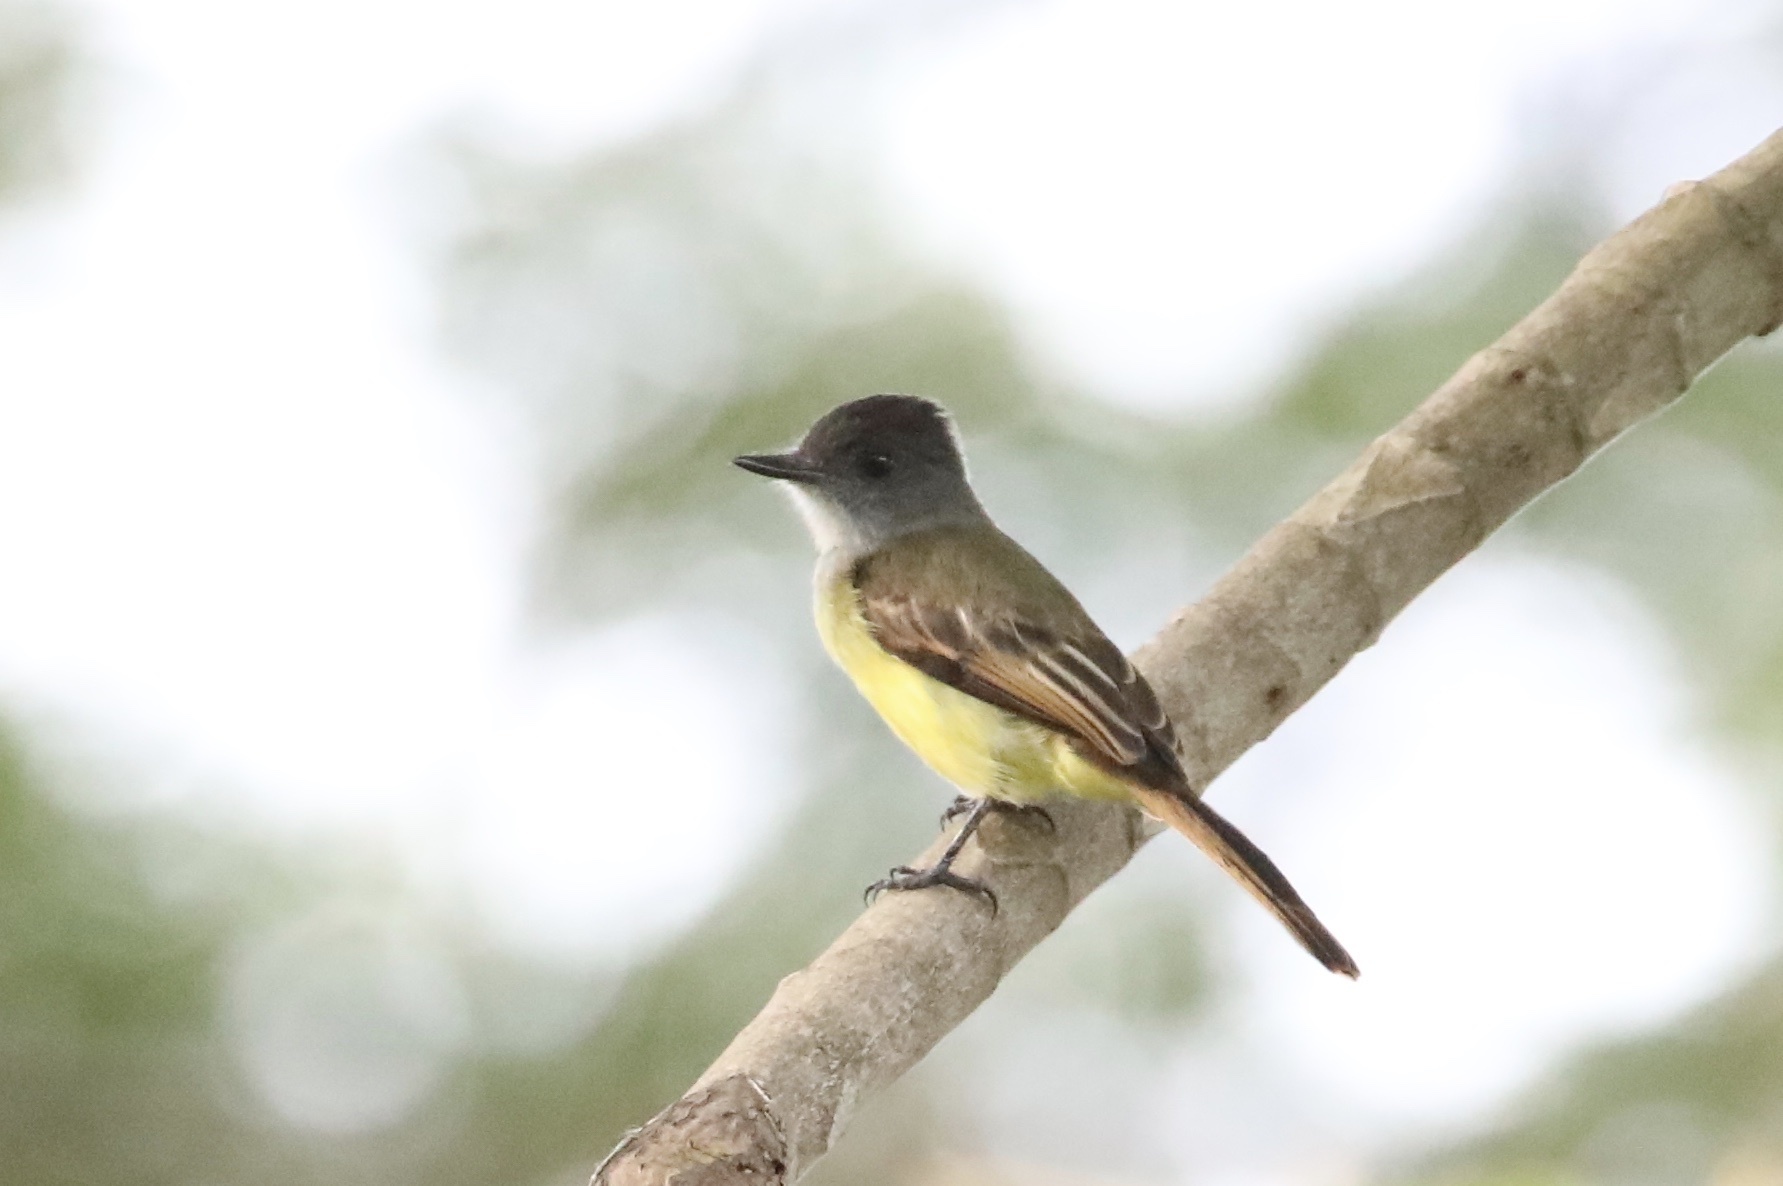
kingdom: Animalia
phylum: Chordata
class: Aves
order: Passeriformes
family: Tyrannidae
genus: Myiarchus
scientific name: Myiarchus tuberculifer
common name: Dusky-capped flycatcher
